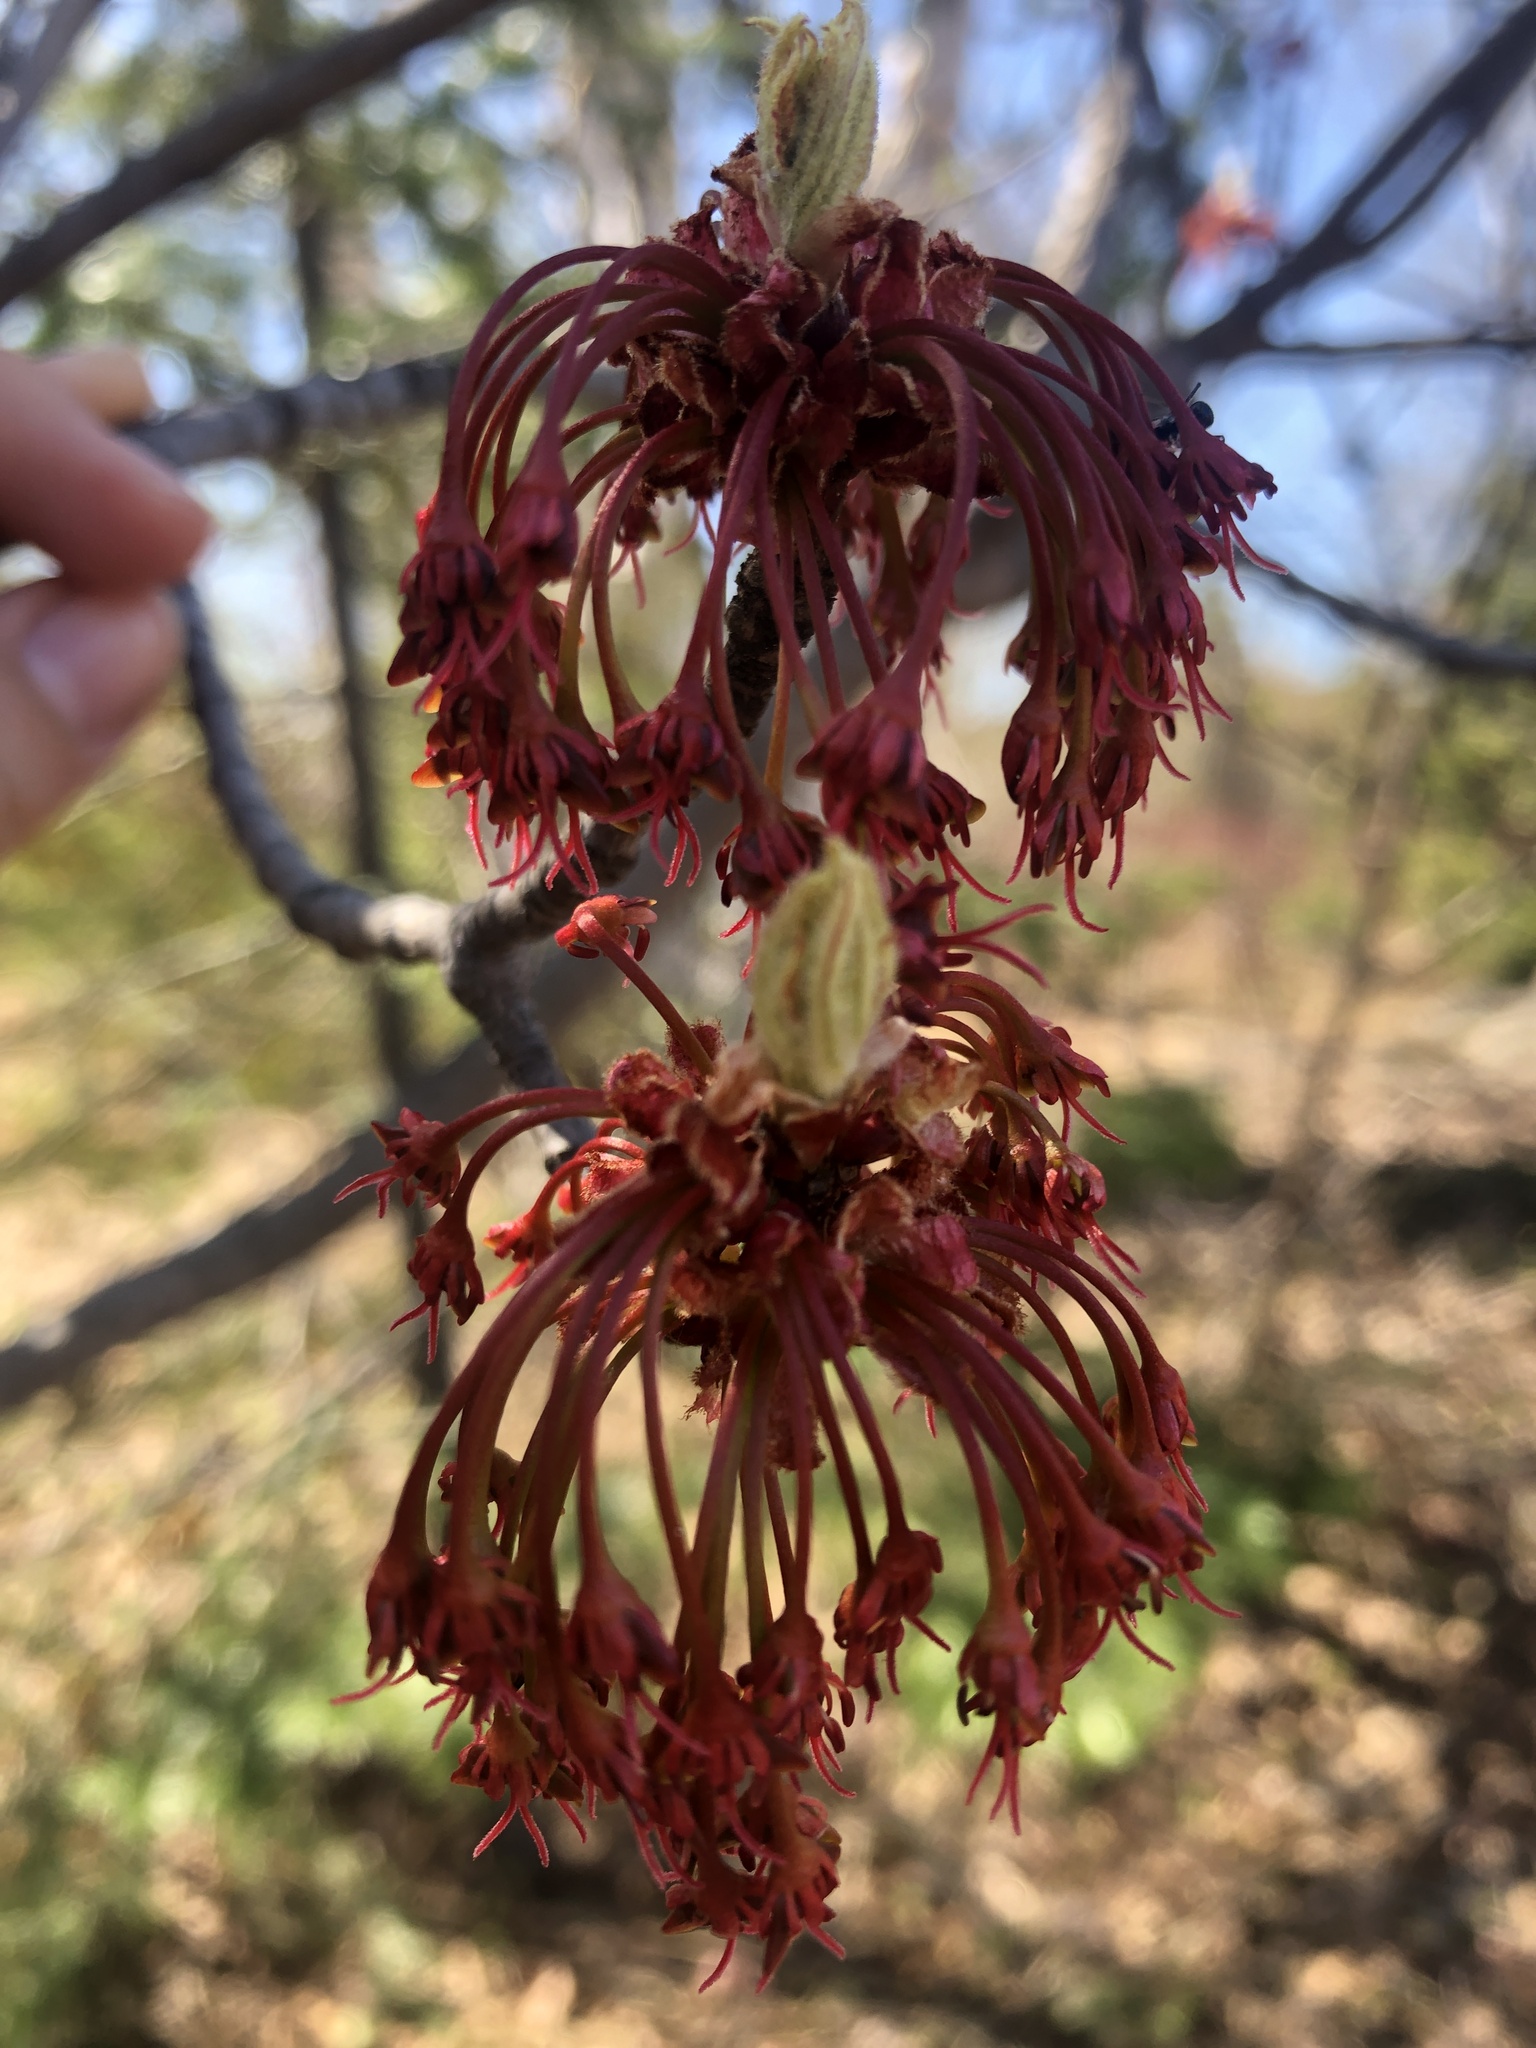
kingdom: Plantae
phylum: Tracheophyta
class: Magnoliopsida
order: Sapindales
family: Sapindaceae
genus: Acer
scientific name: Acer rubrum
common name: Red maple
